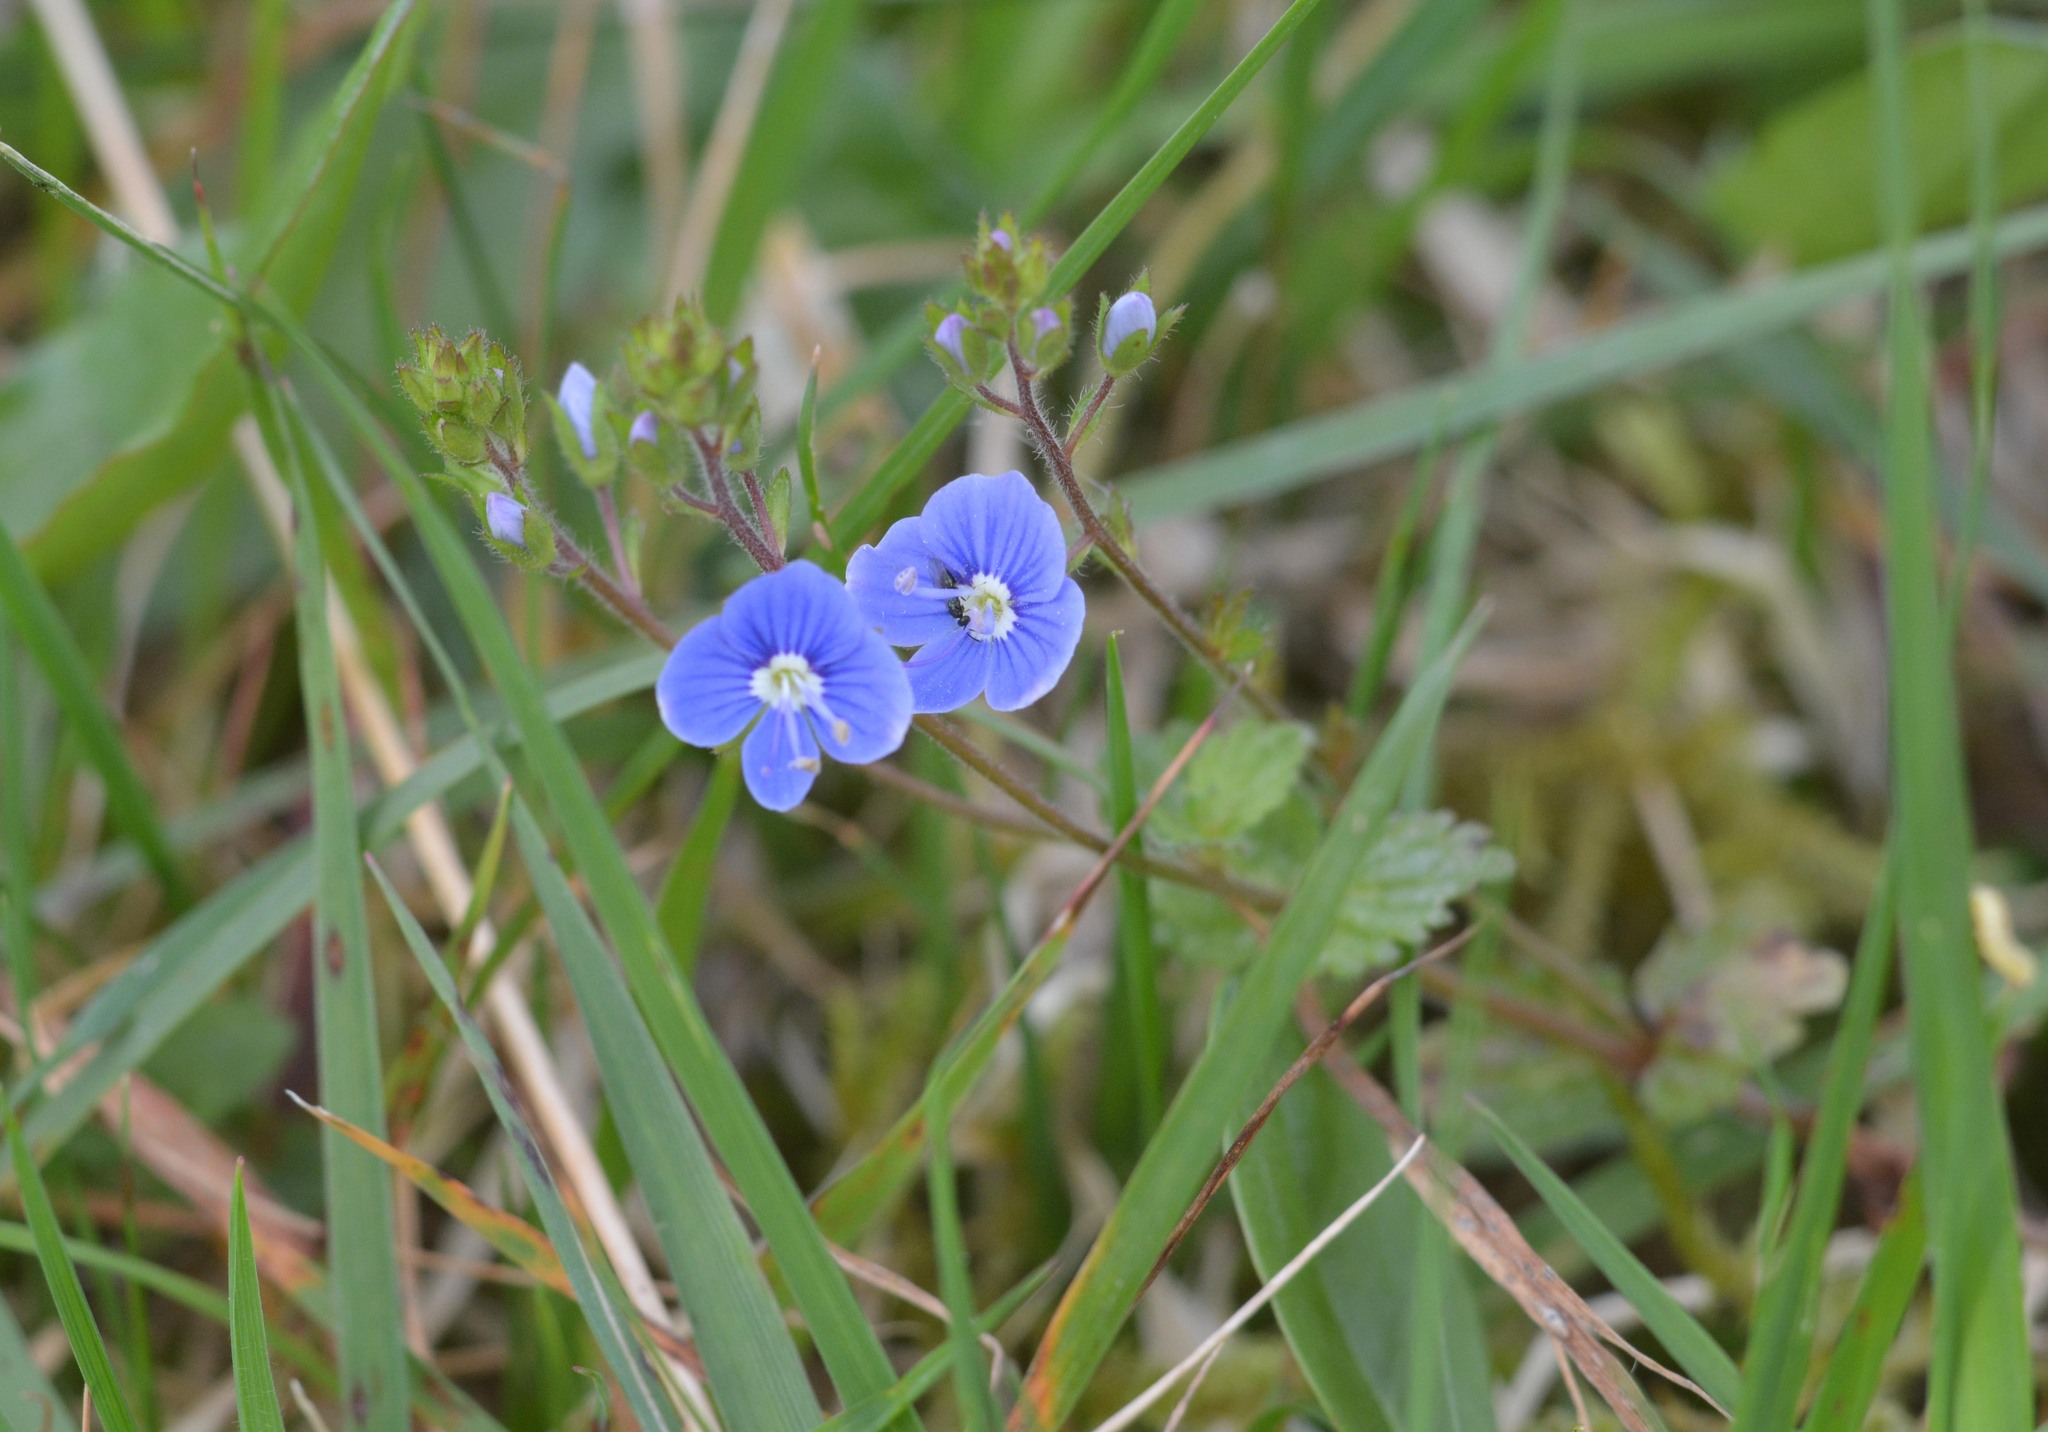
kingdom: Plantae
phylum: Tracheophyta
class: Magnoliopsida
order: Lamiales
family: Plantaginaceae
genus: Veronica
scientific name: Veronica chamaedrys
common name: Germander speedwell
